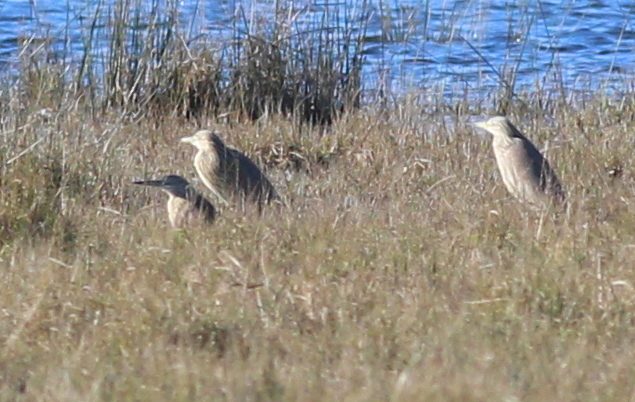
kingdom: Animalia
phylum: Chordata
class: Aves
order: Pelecaniformes
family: Ardeidae
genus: Ardeola
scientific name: Ardeola ralloides
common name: Squacco heron
